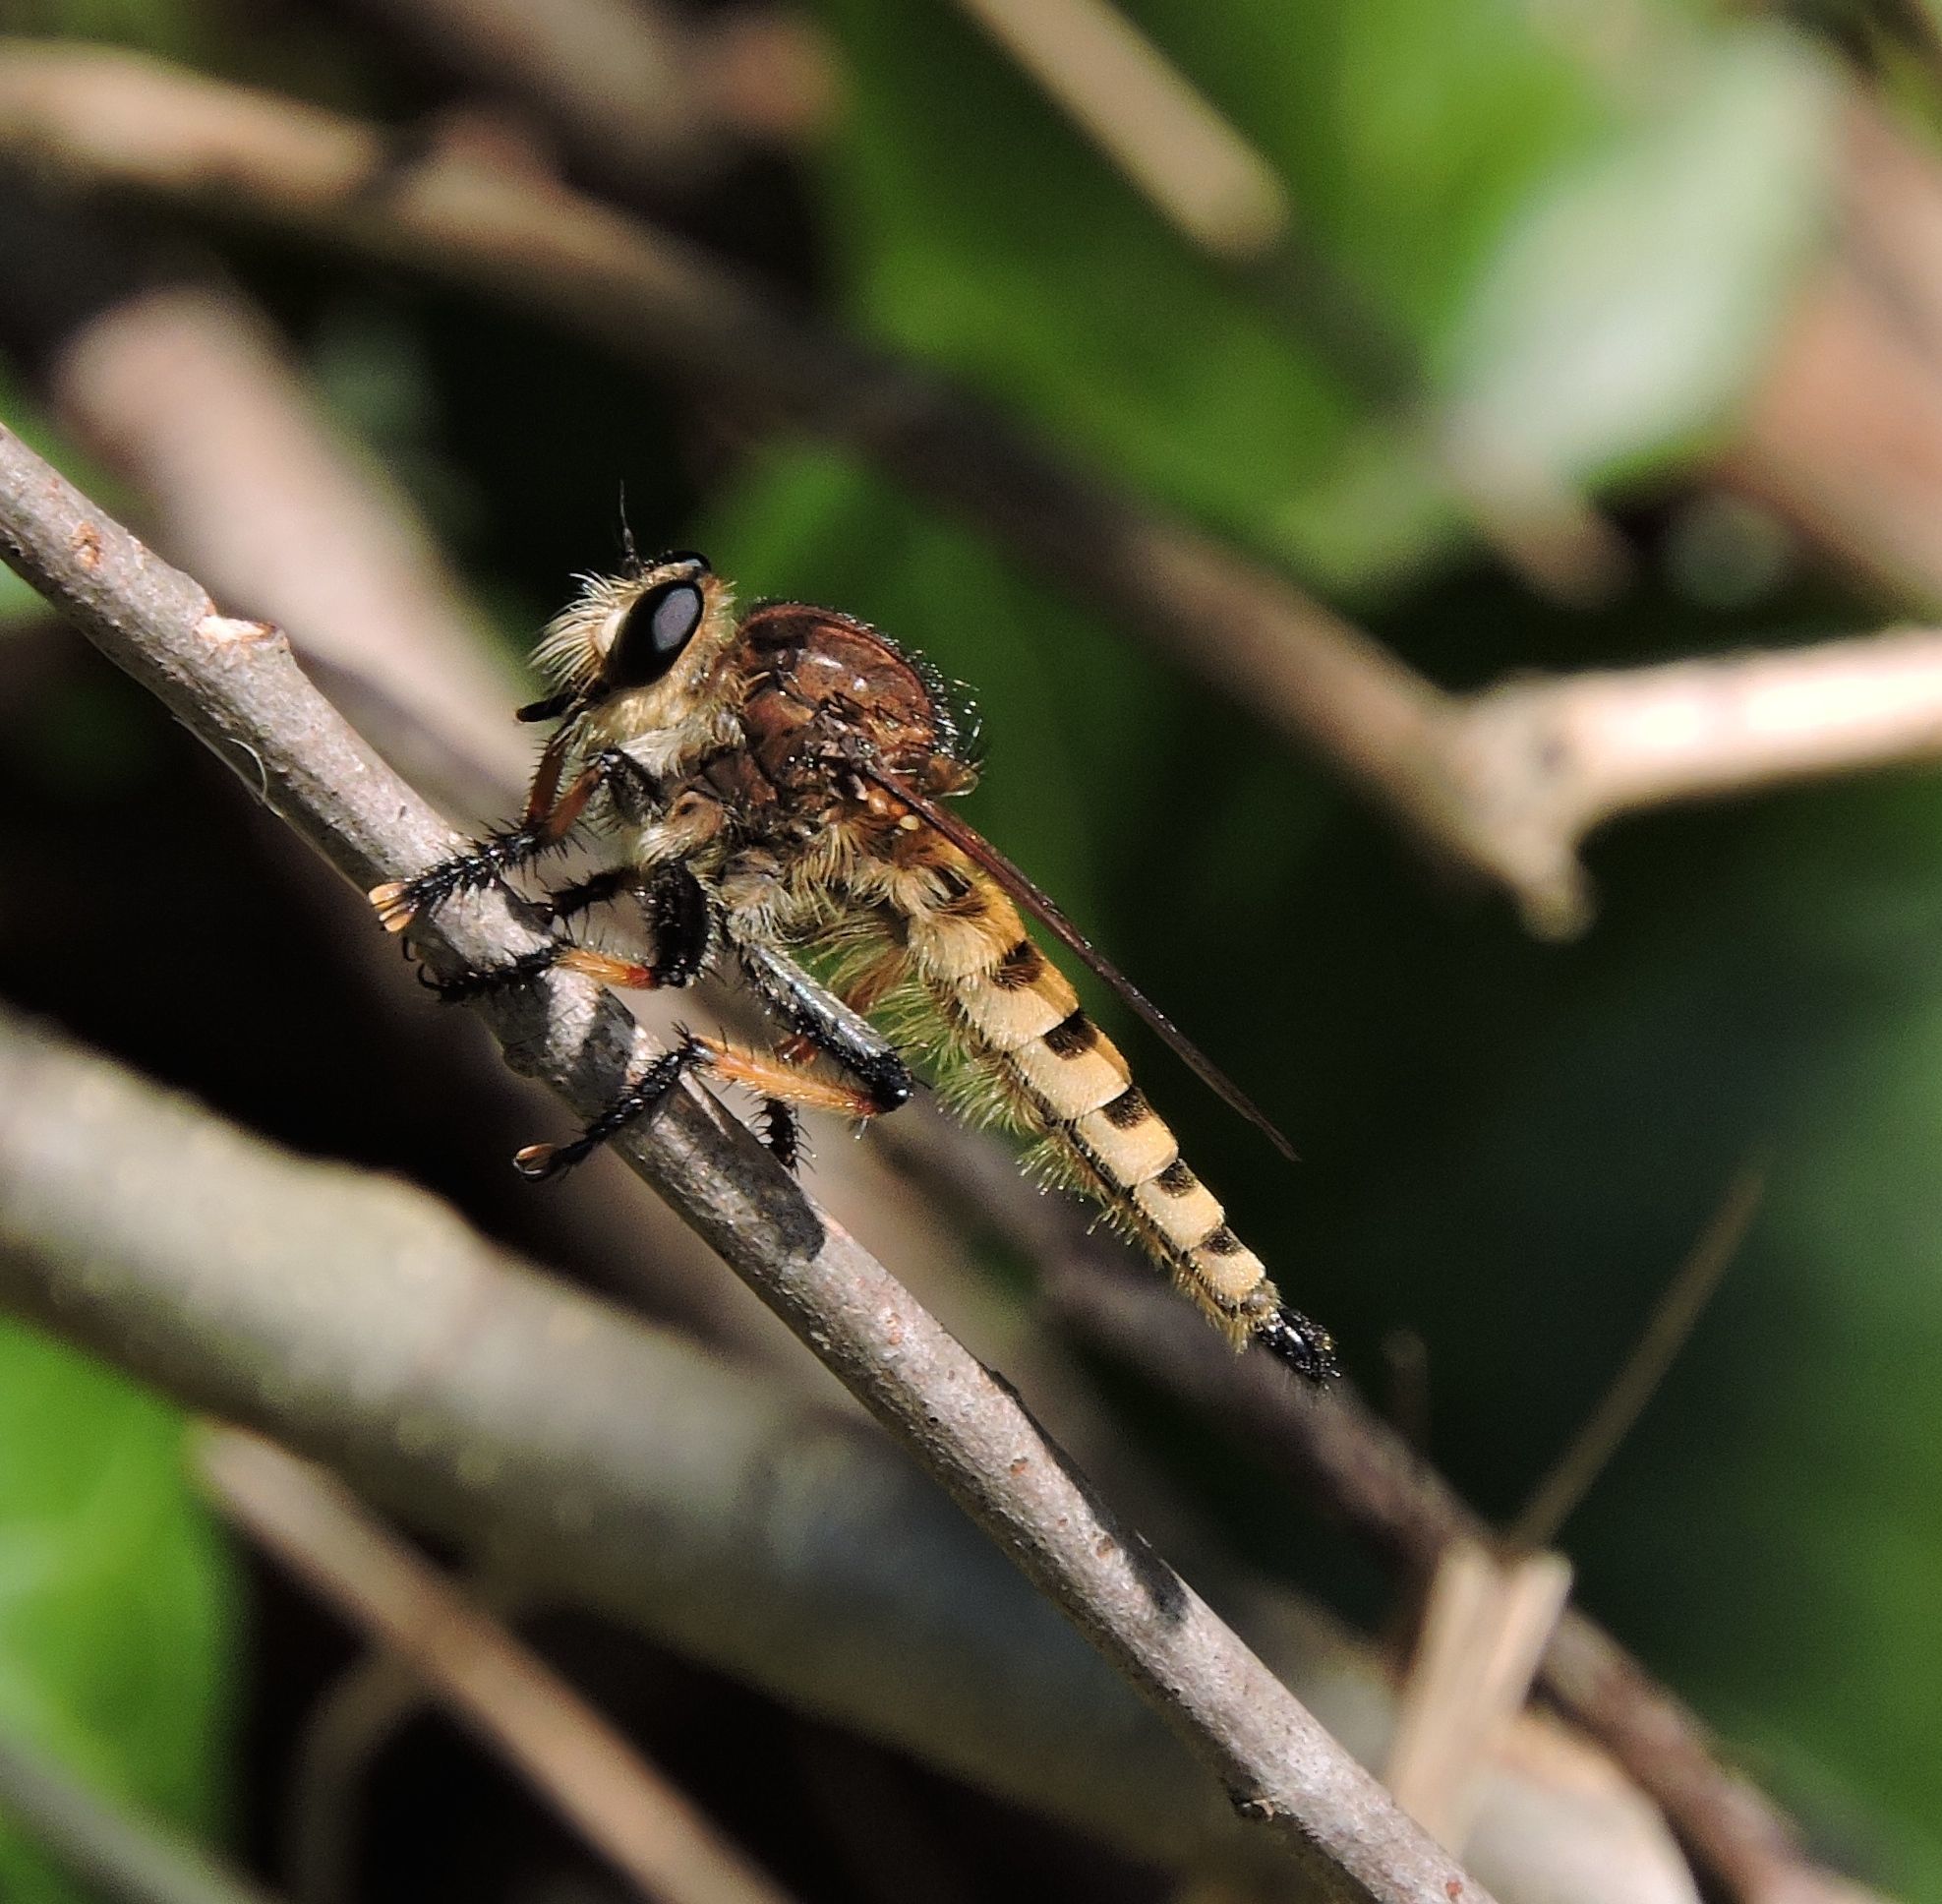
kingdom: Animalia
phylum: Arthropoda
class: Insecta
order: Diptera
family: Asilidae
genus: Promachus
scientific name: Promachus rufipes
